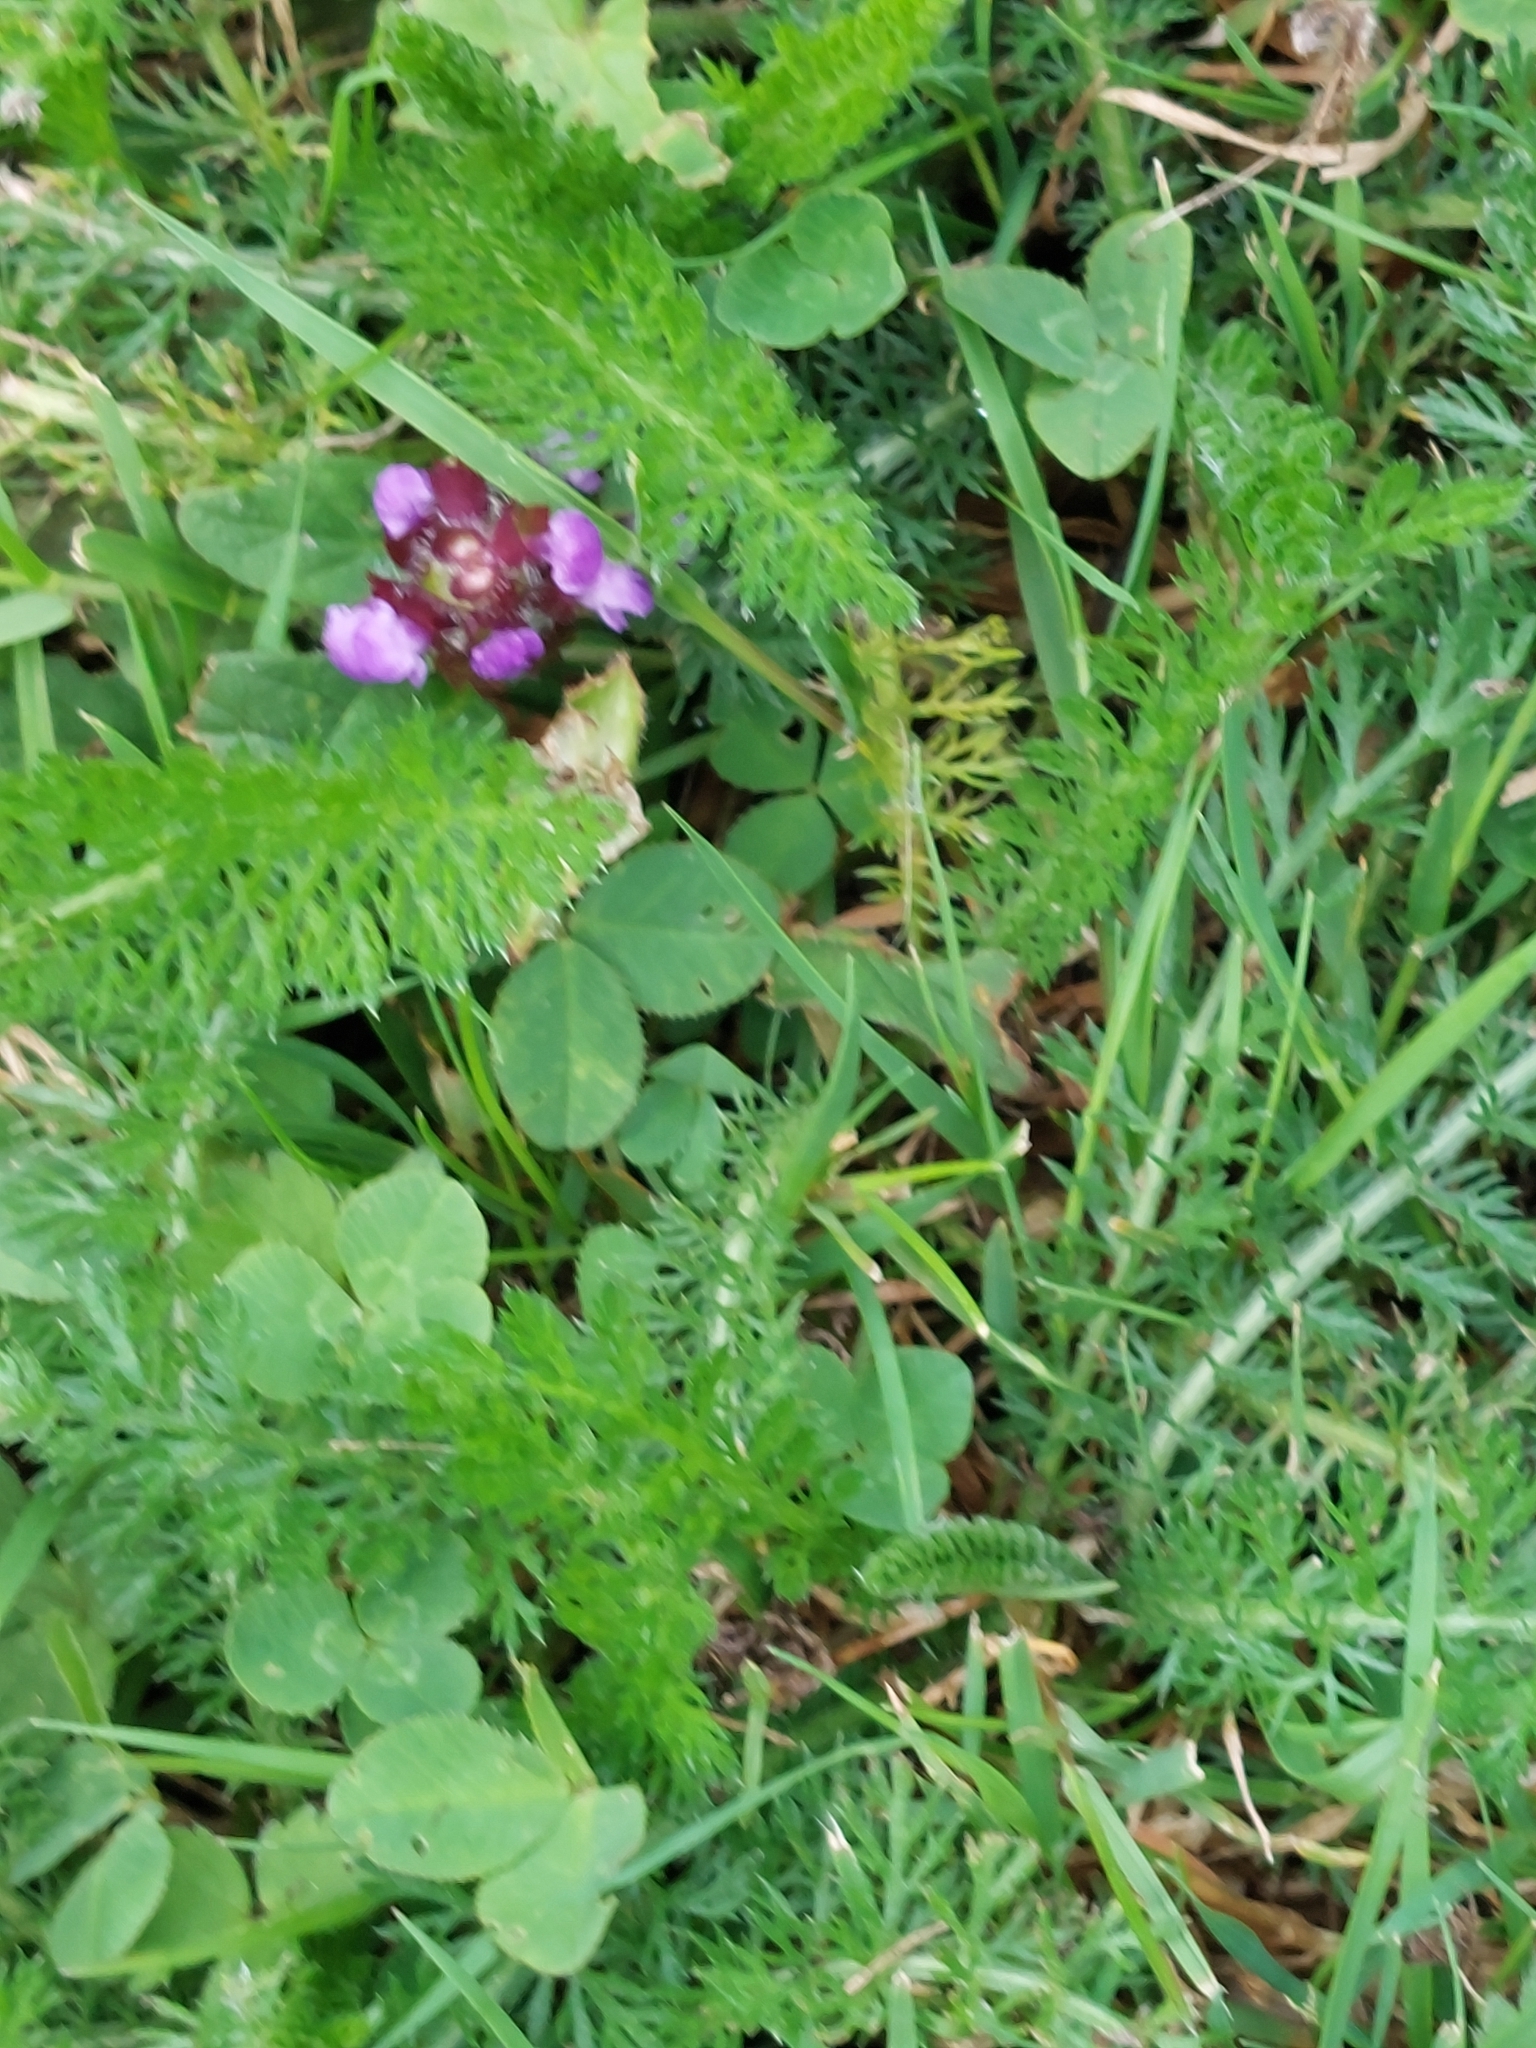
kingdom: Plantae
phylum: Tracheophyta
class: Magnoliopsida
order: Lamiales
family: Lamiaceae
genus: Prunella
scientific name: Prunella vulgaris
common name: Heal-all
